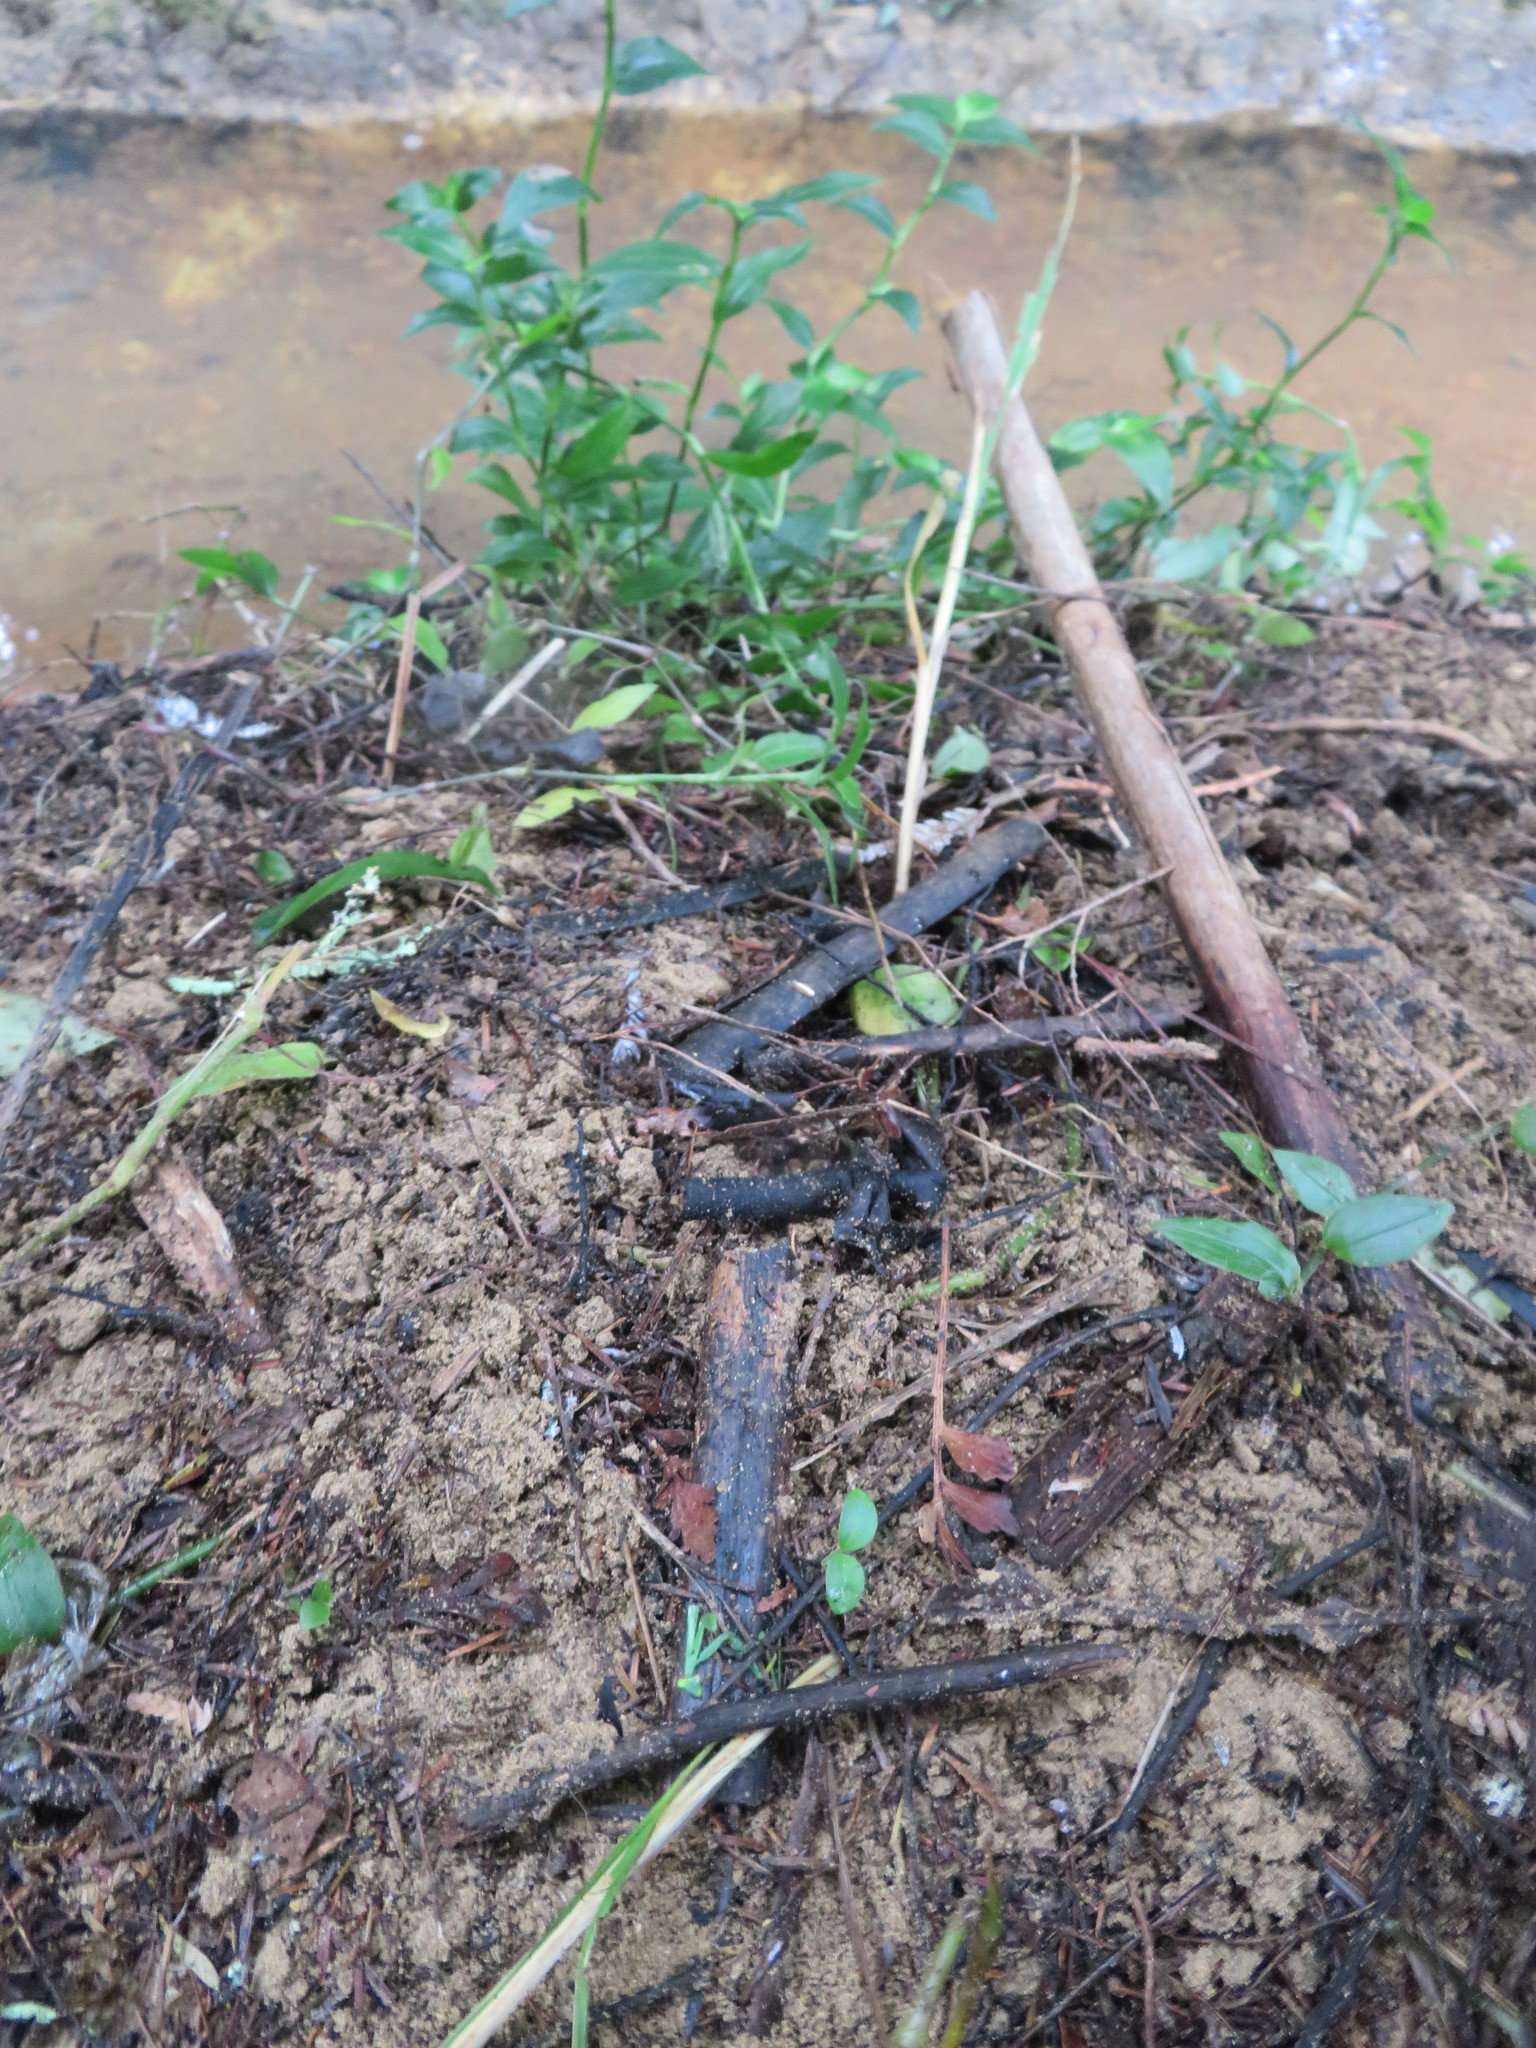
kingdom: Plantae
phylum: Tracheophyta
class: Magnoliopsida
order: Lamiales
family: Oleaceae
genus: Ligustrum
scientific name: Ligustrum lucidum
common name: Glossy privet
